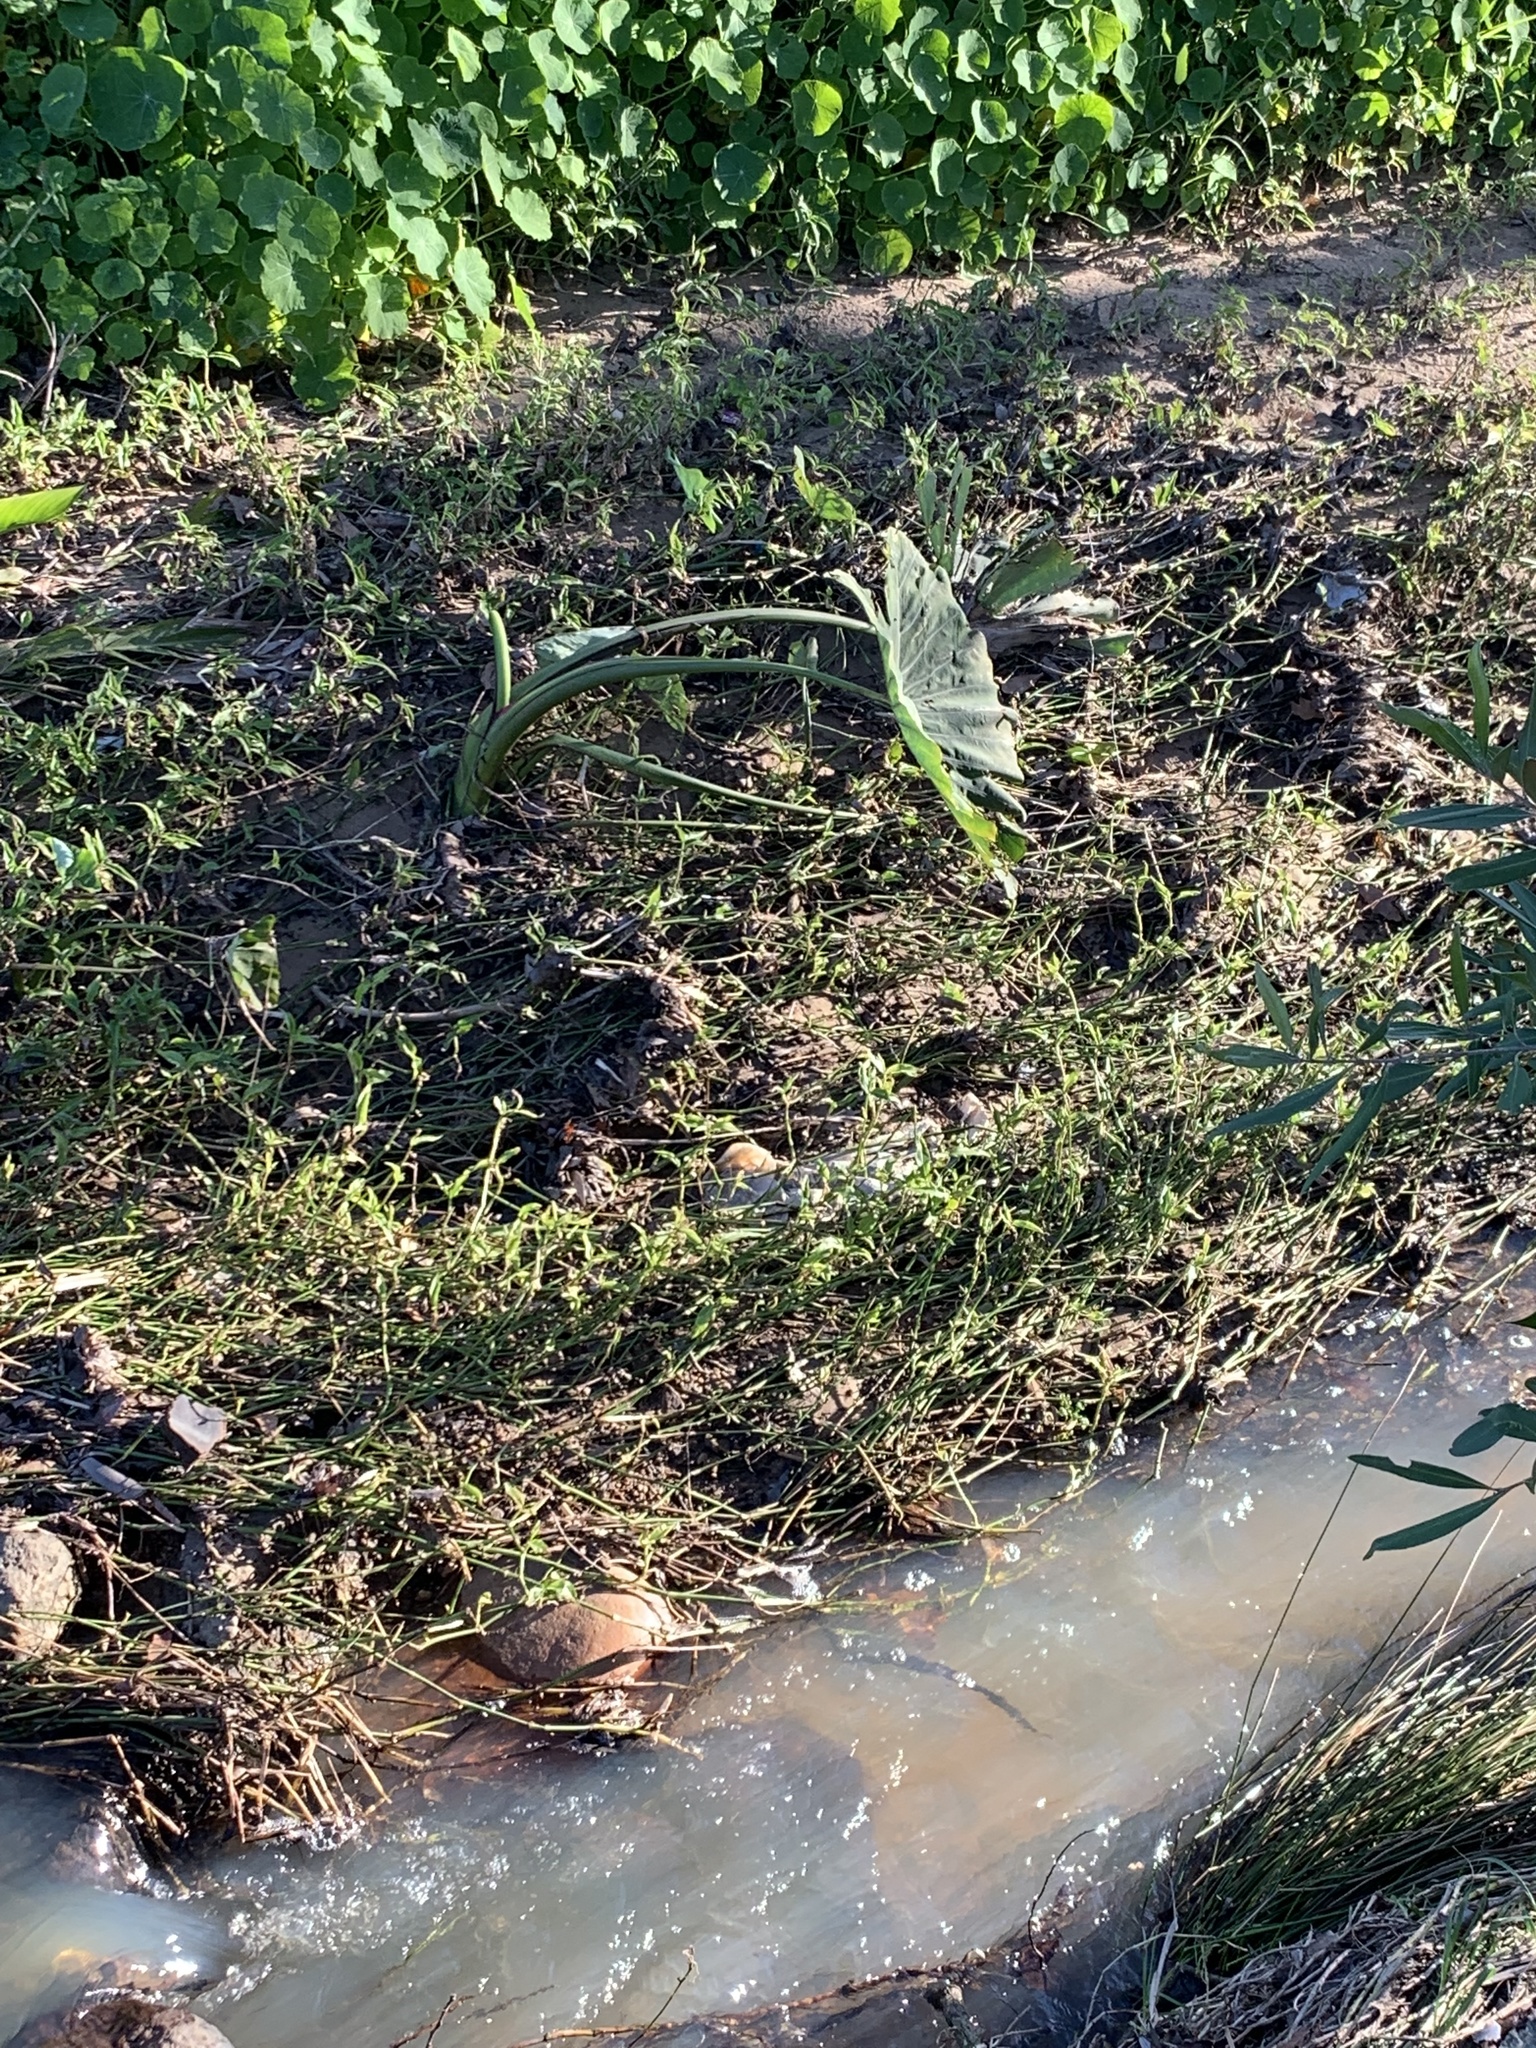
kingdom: Plantae
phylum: Tracheophyta
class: Liliopsida
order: Alismatales
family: Araceae
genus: Colocasia
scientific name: Colocasia esculenta
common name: Taro
